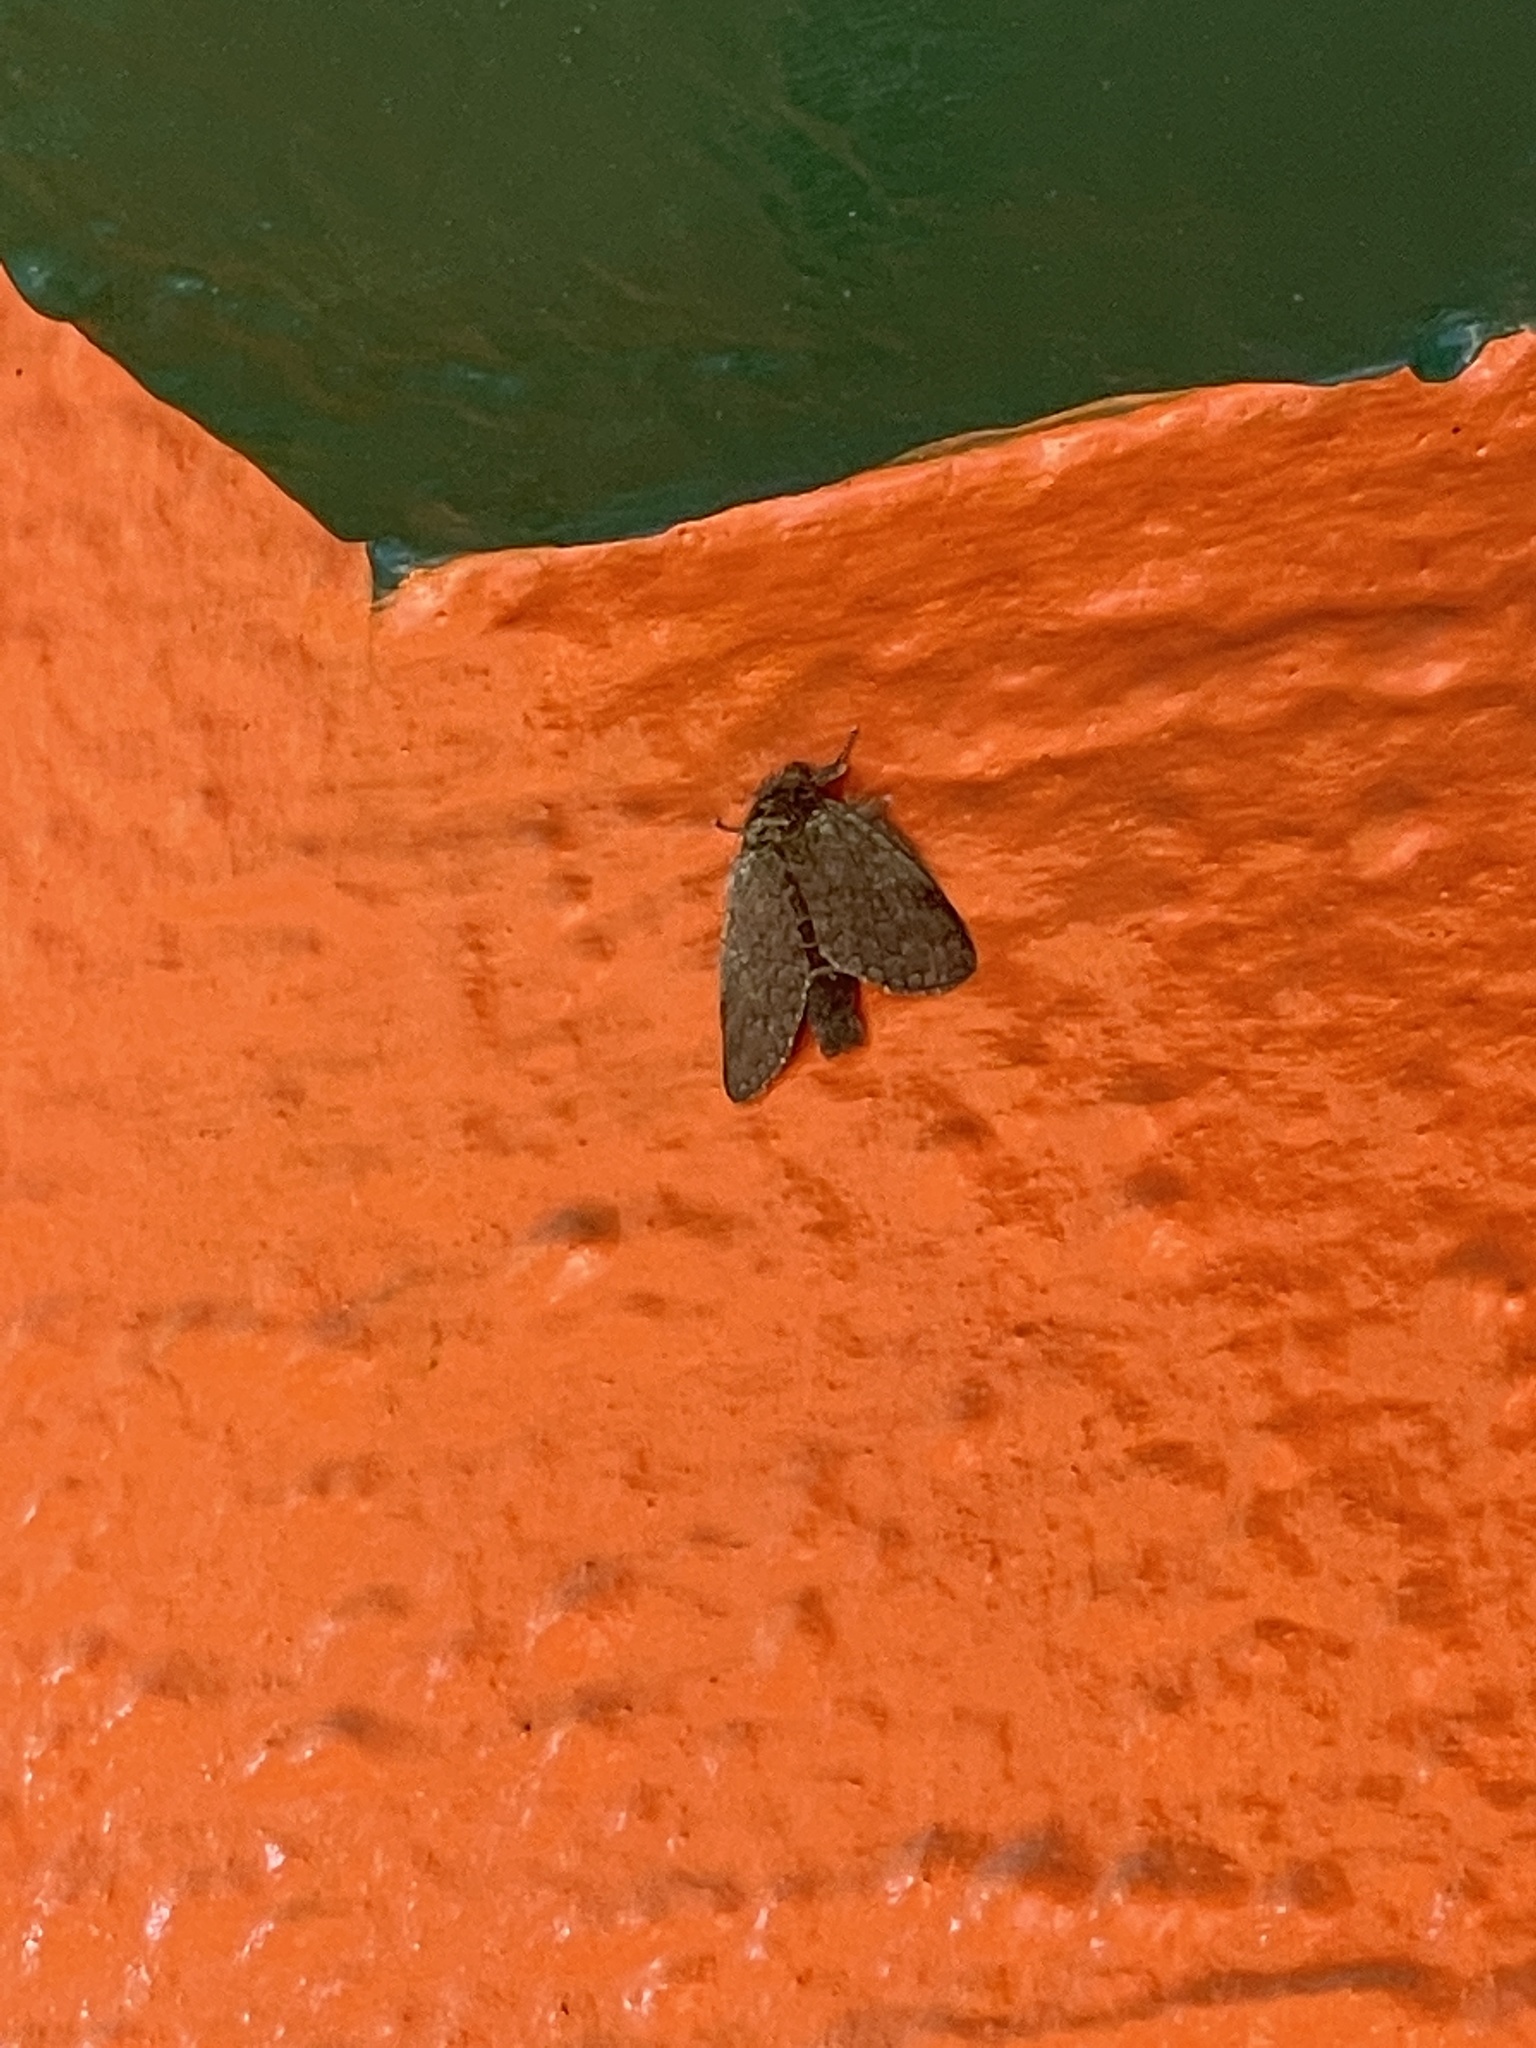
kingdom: Animalia
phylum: Arthropoda
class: Insecta
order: Lepidoptera
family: Notodontidae
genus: Netria
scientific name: Netria viridescens
